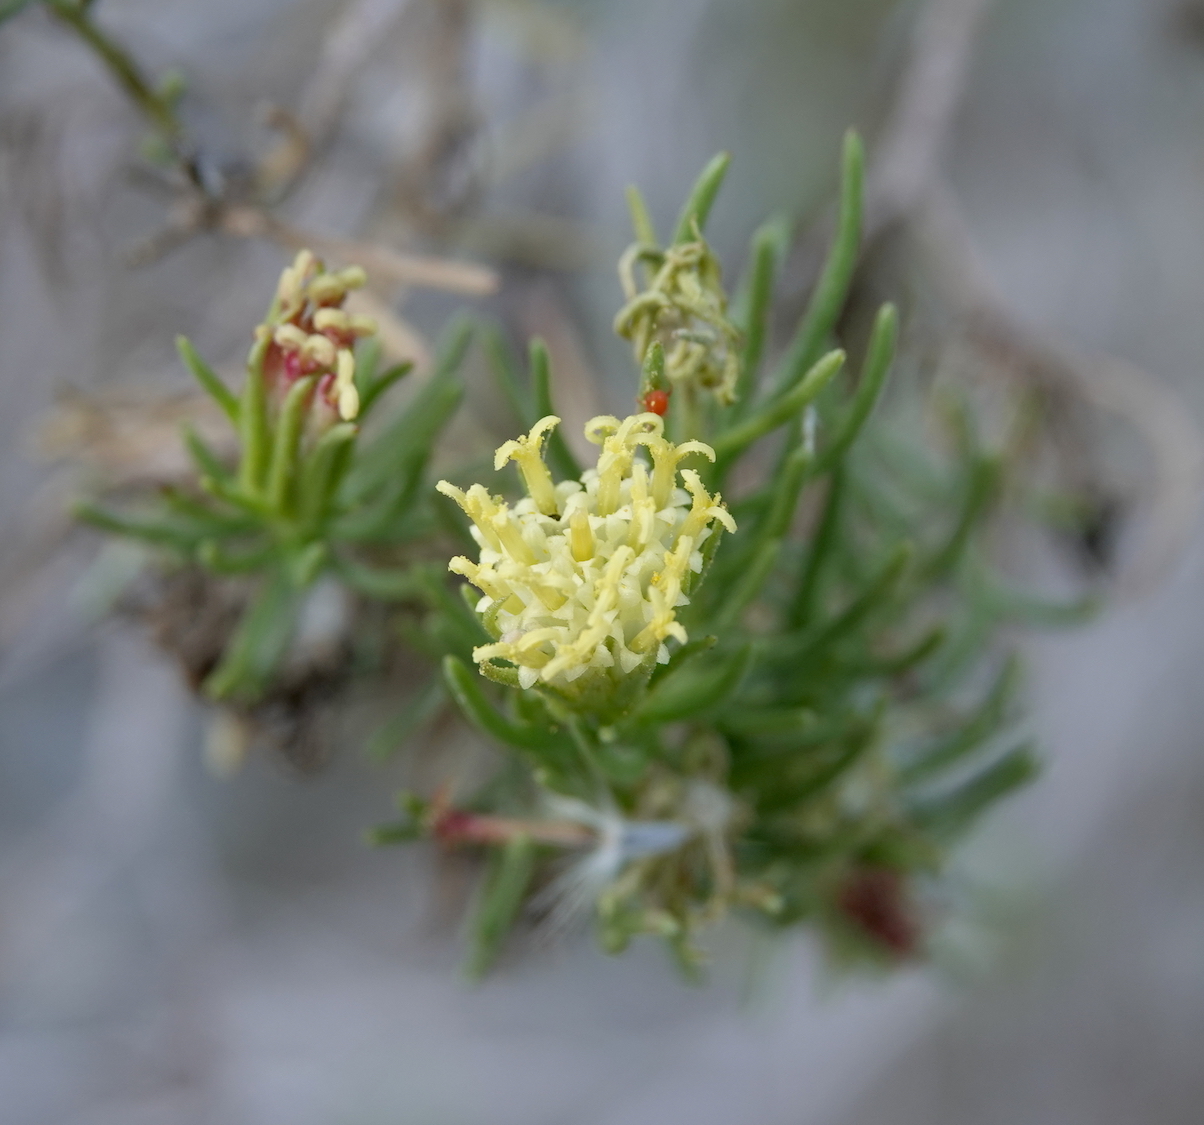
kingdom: Plantae
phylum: Tracheophyta
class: Magnoliopsida
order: Asterales
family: Asteraceae
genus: Peucephyllum
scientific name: Peucephyllum schottii
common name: Pygmy-cedar
